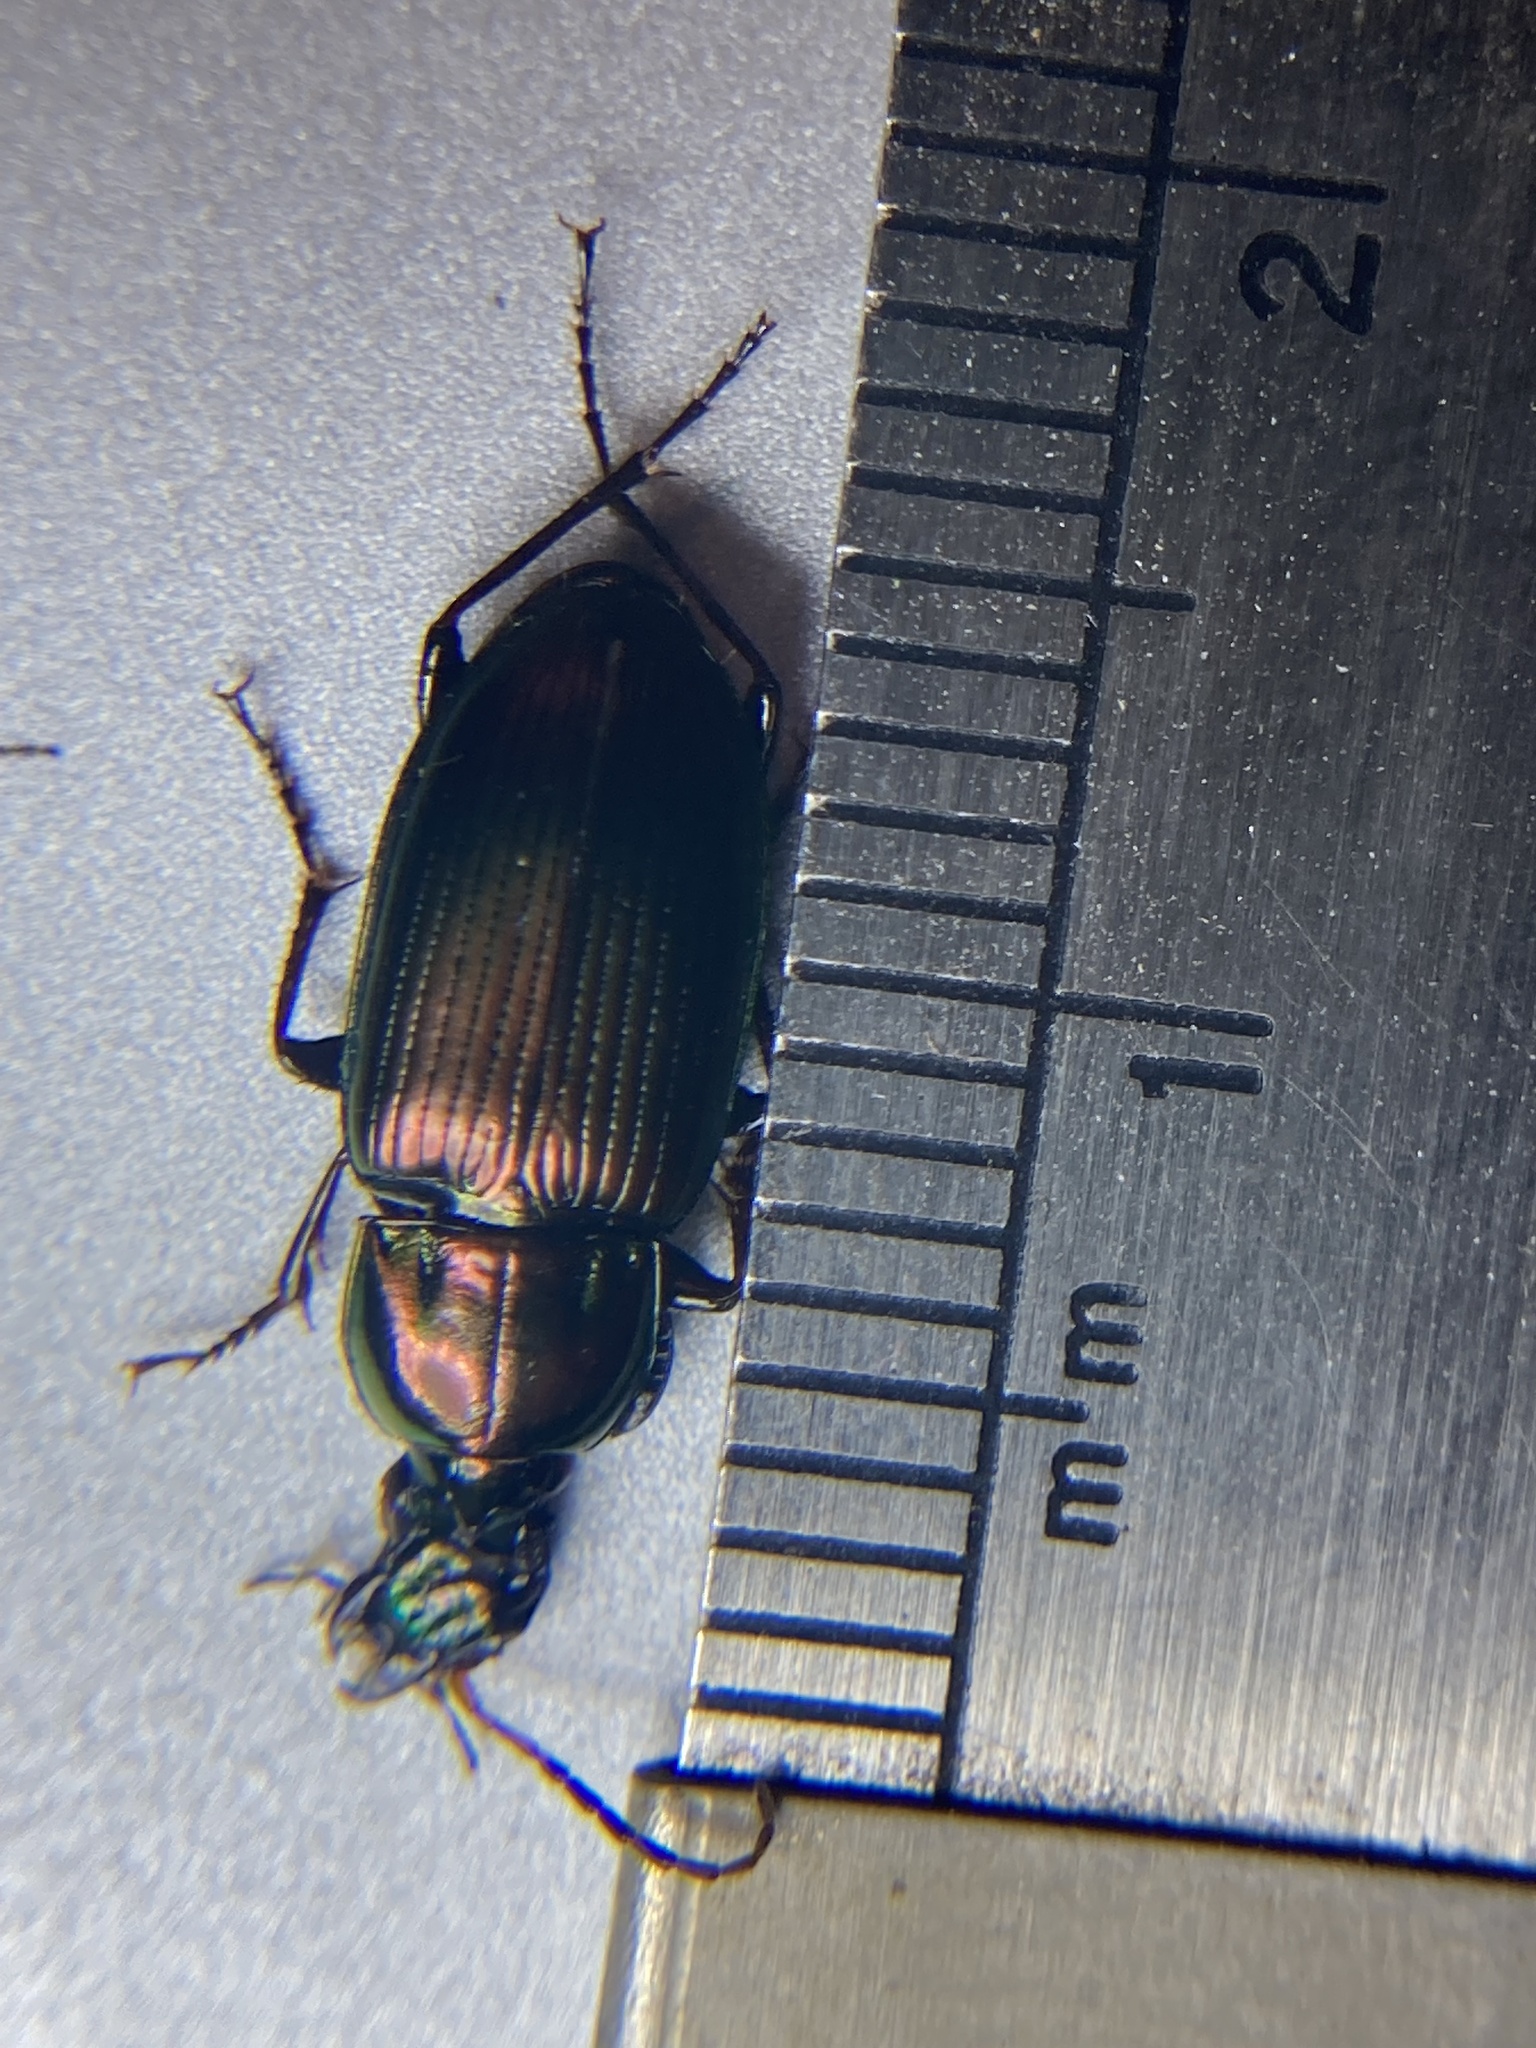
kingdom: Animalia
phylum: Arthropoda
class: Insecta
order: Coleoptera
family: Carabidae
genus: Poecilus
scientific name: Poecilus chalcites
